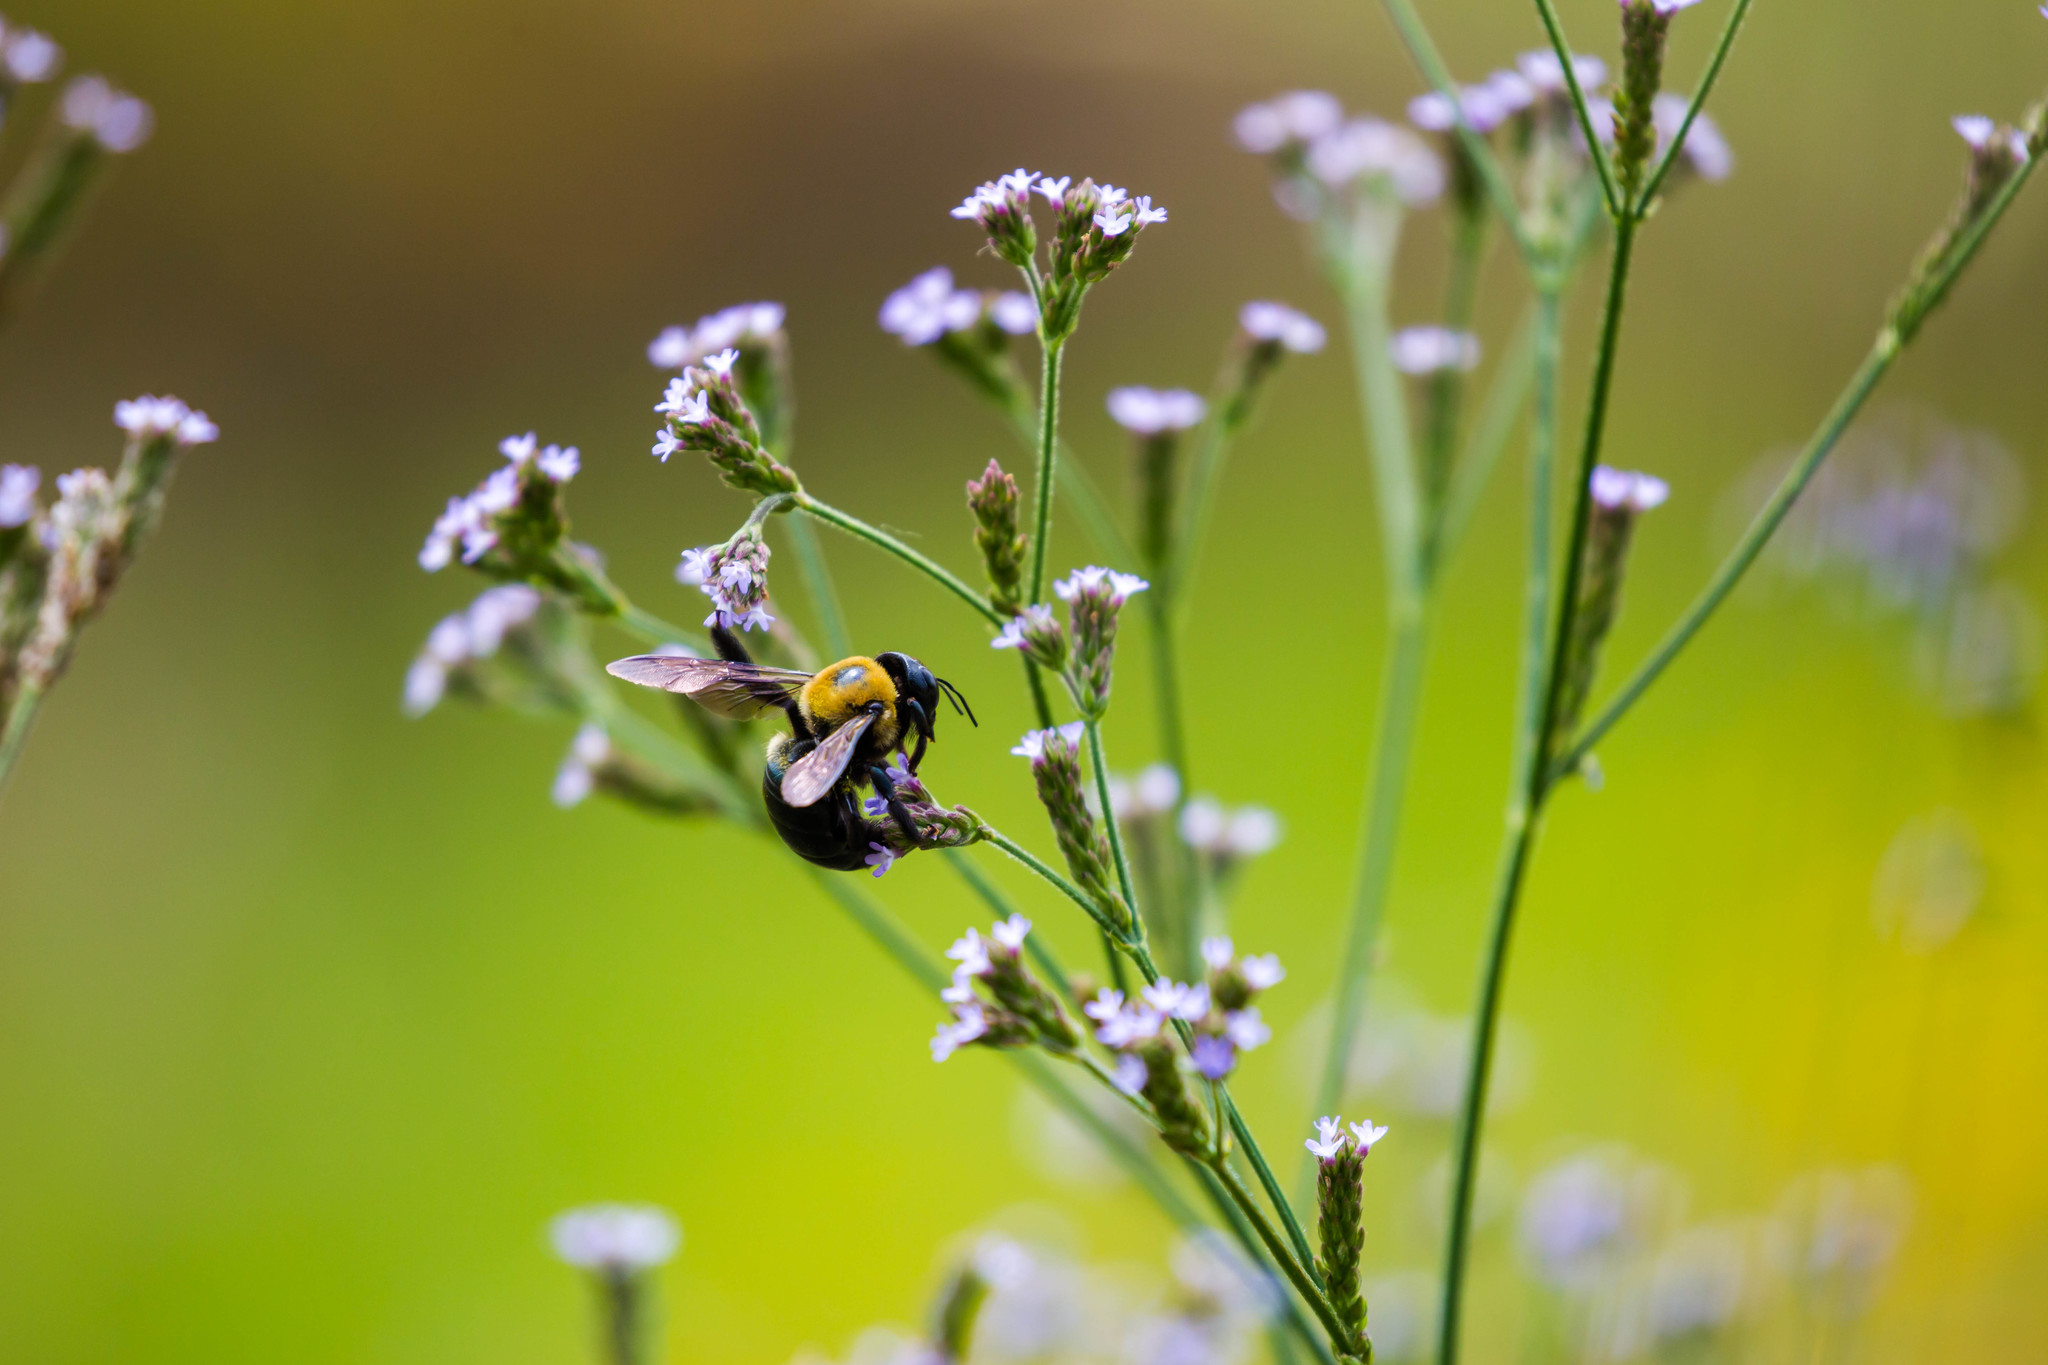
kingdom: Animalia
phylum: Arthropoda
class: Insecta
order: Hymenoptera
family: Apidae
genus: Xylocopa
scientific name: Xylocopa virginica
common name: Carpenter bee
